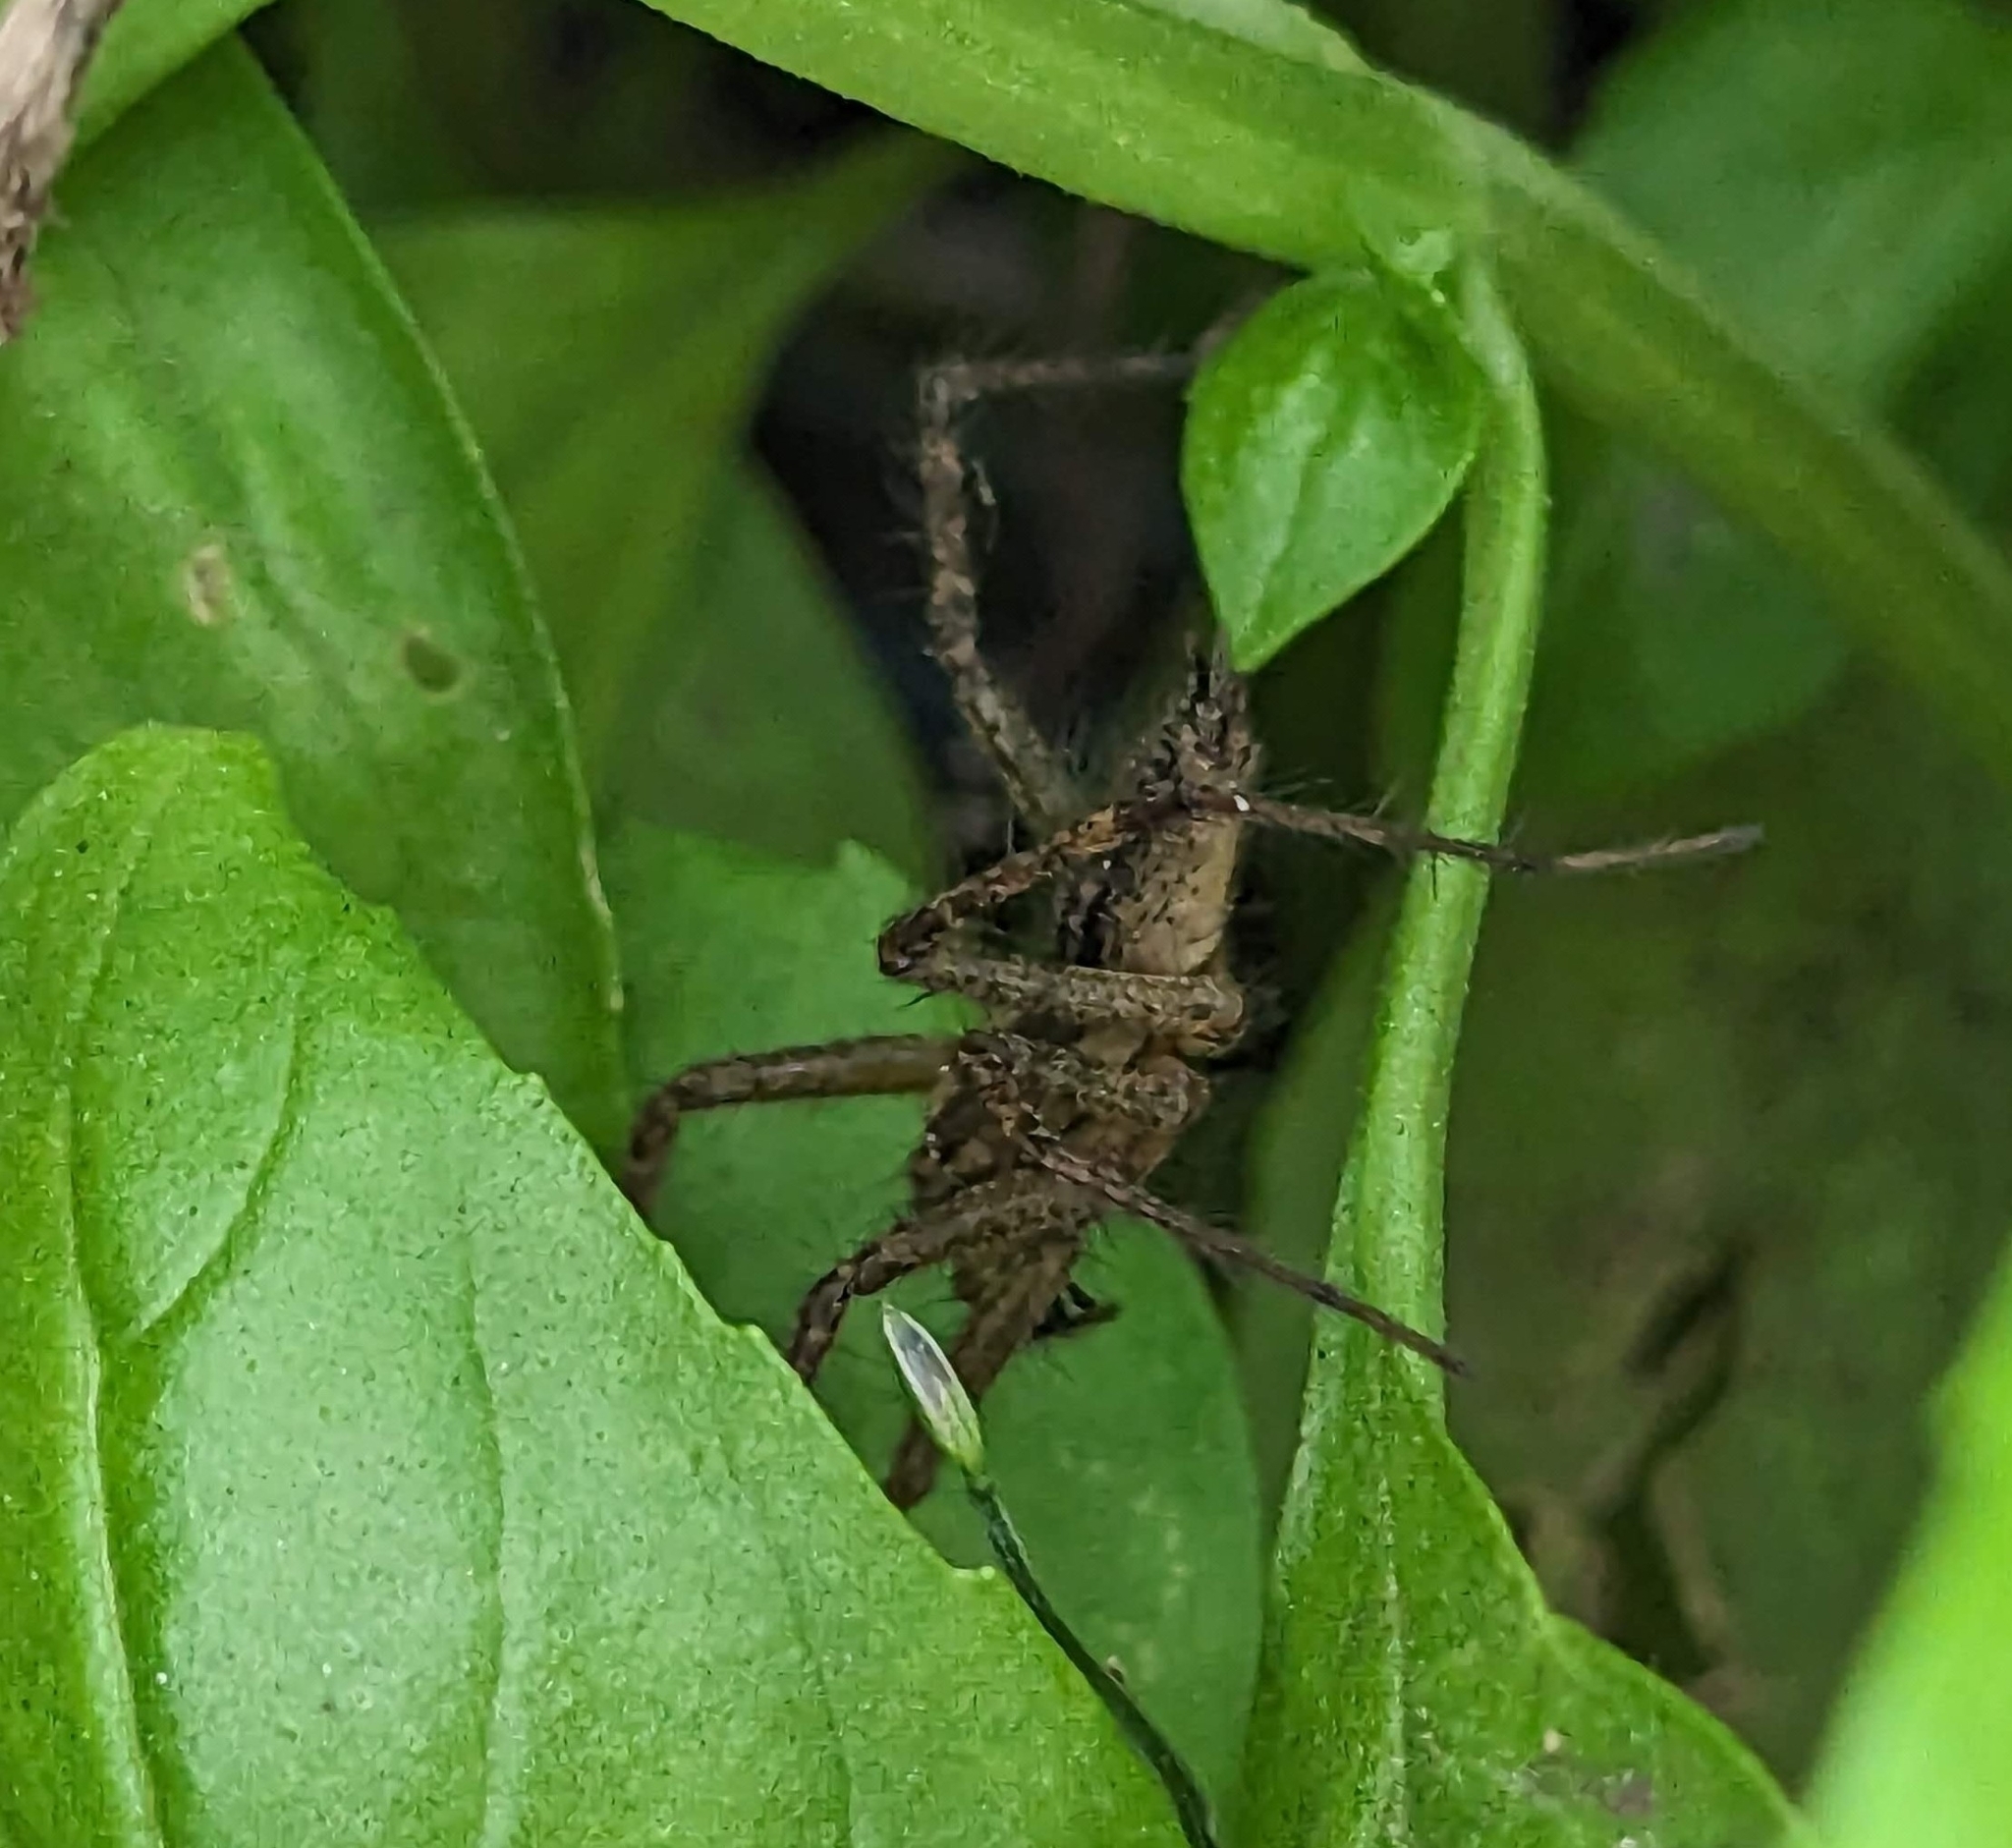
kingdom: Animalia
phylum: Arthropoda
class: Arachnida
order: Araneae
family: Agelenidae
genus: Agelenopsis
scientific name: Agelenopsis
